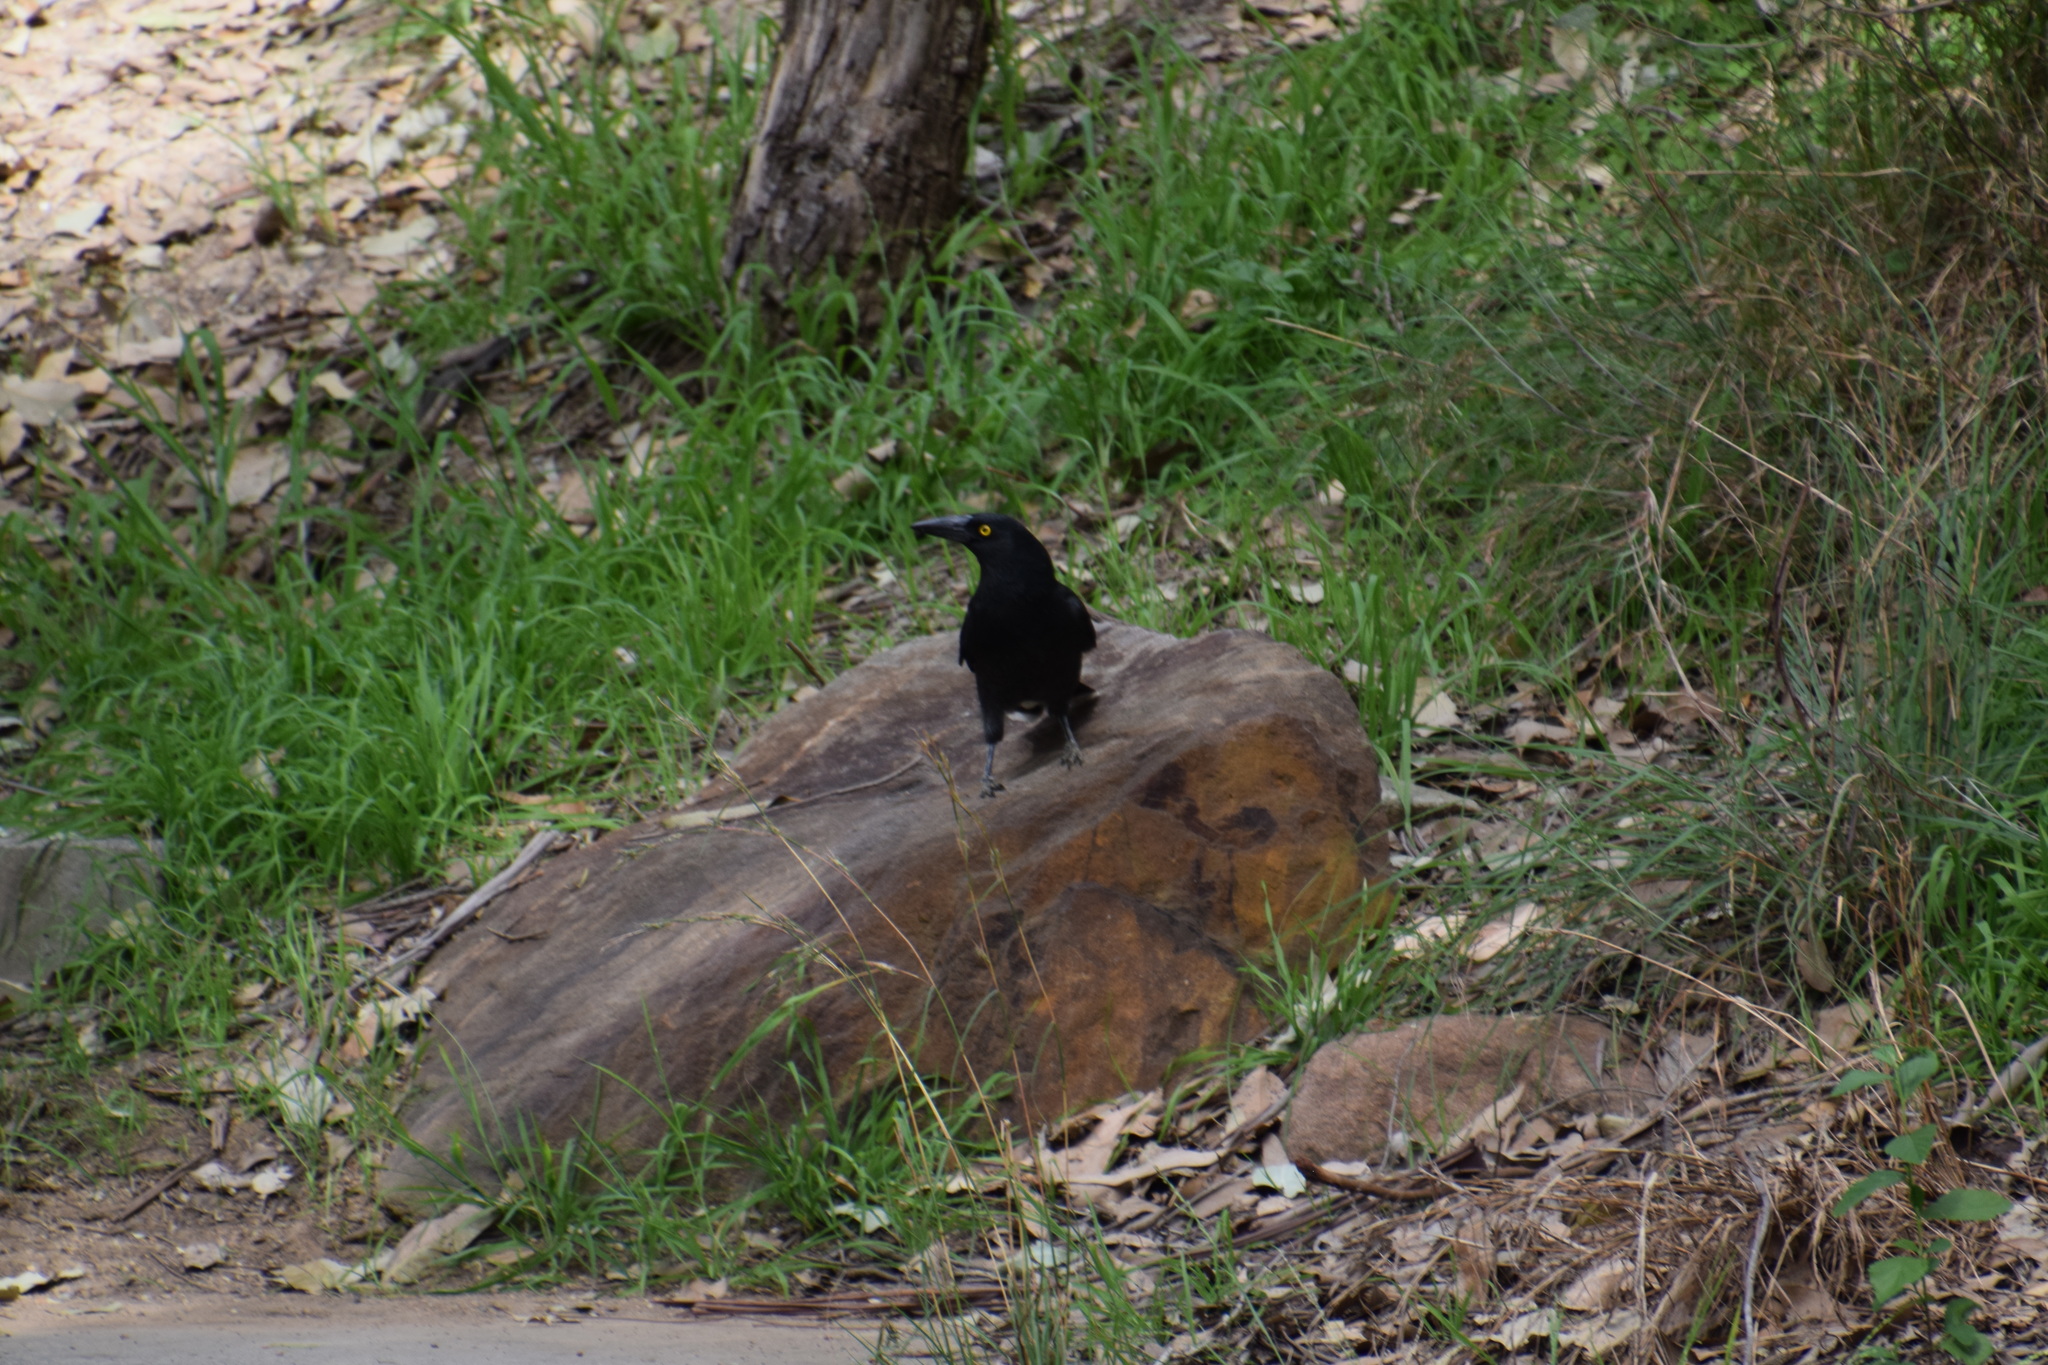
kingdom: Animalia
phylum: Chordata
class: Aves
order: Passeriformes
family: Cracticidae
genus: Strepera
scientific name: Strepera graculina
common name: Pied currawong
